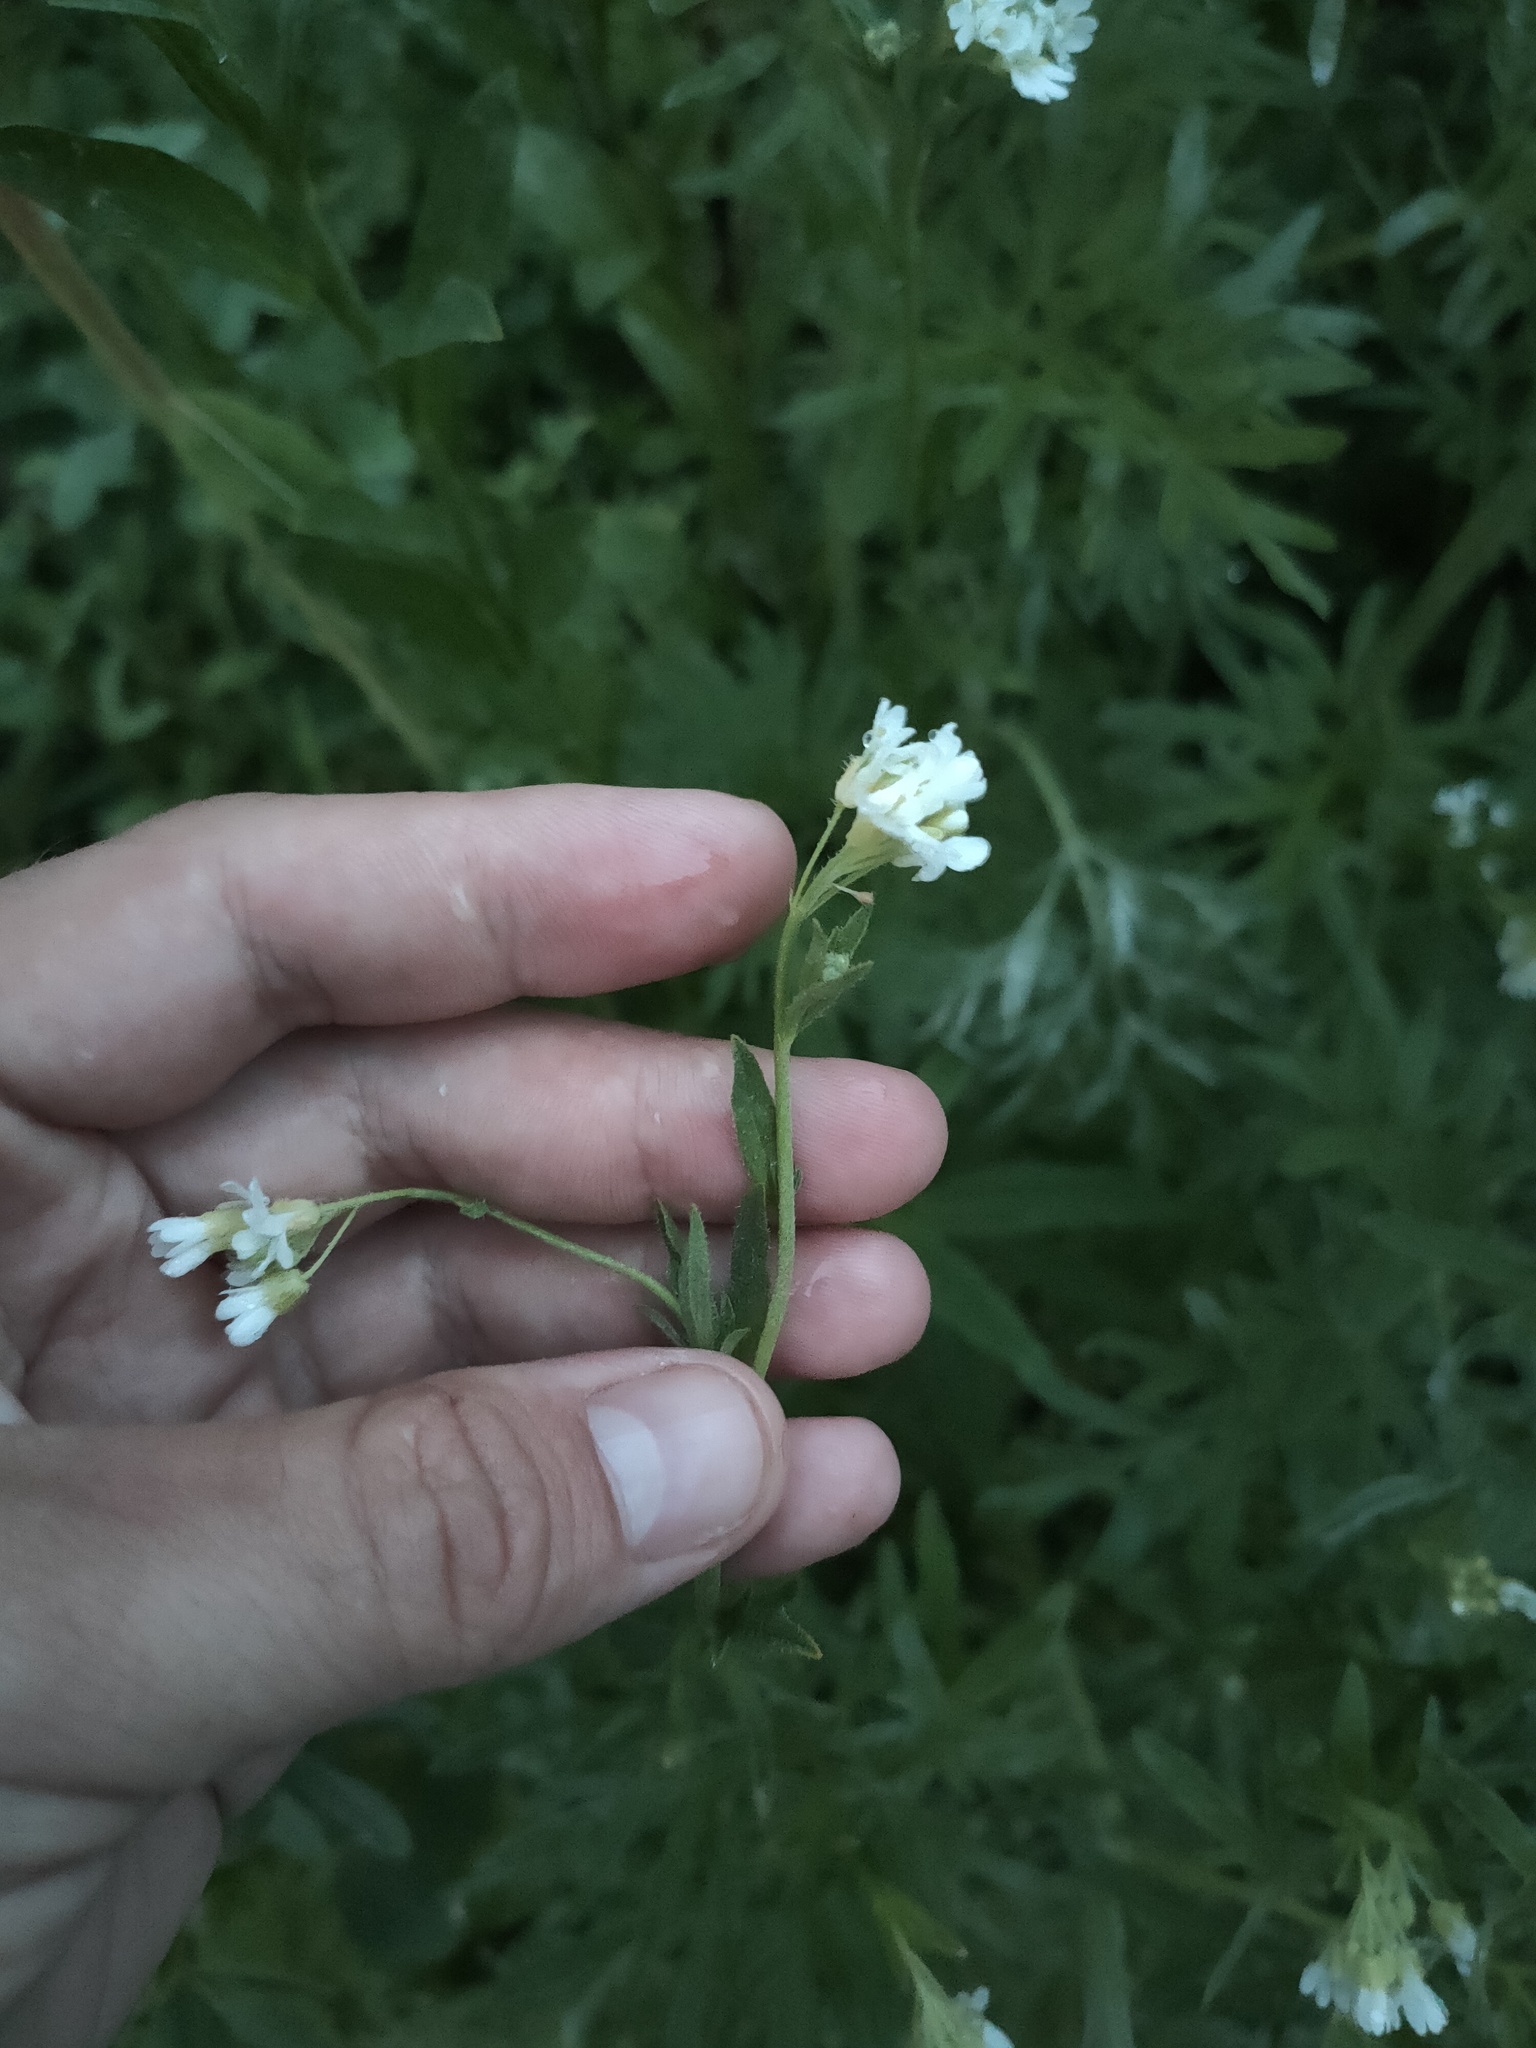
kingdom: Plantae
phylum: Tracheophyta
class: Magnoliopsida
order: Brassicales
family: Brassicaceae
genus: Berteroa
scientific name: Berteroa incana
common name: Hoary alison
